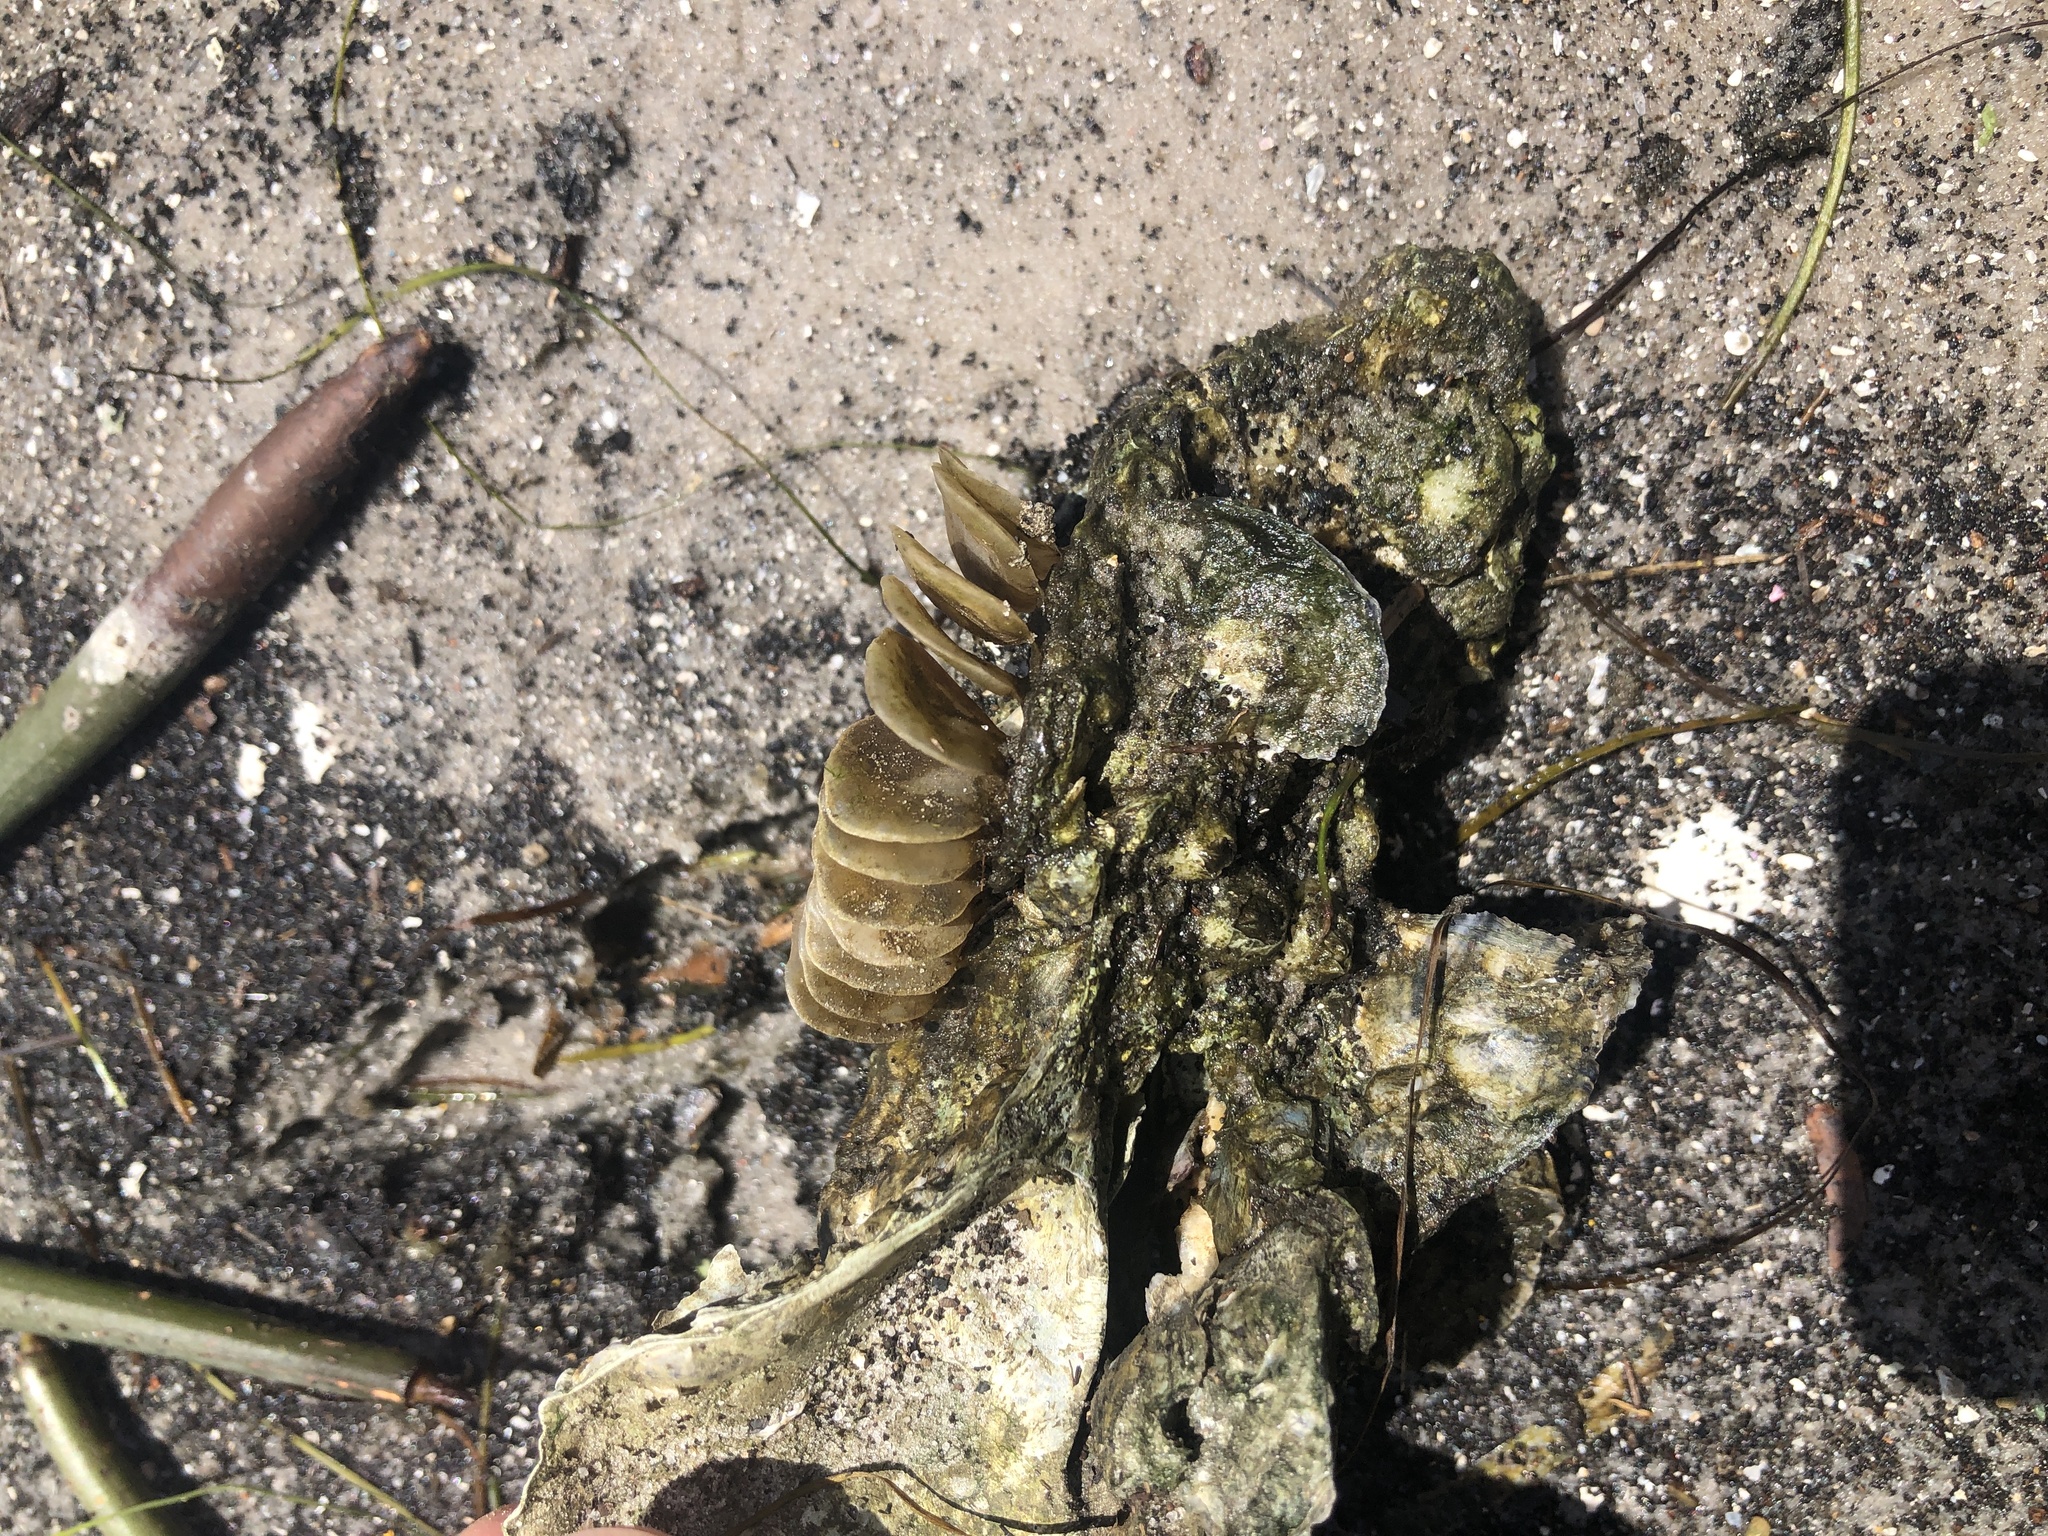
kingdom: Animalia
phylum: Mollusca
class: Gastropoda
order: Neogastropoda
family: Melongenidae
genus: Melongena
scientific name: Melongena corona
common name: American crown conch
